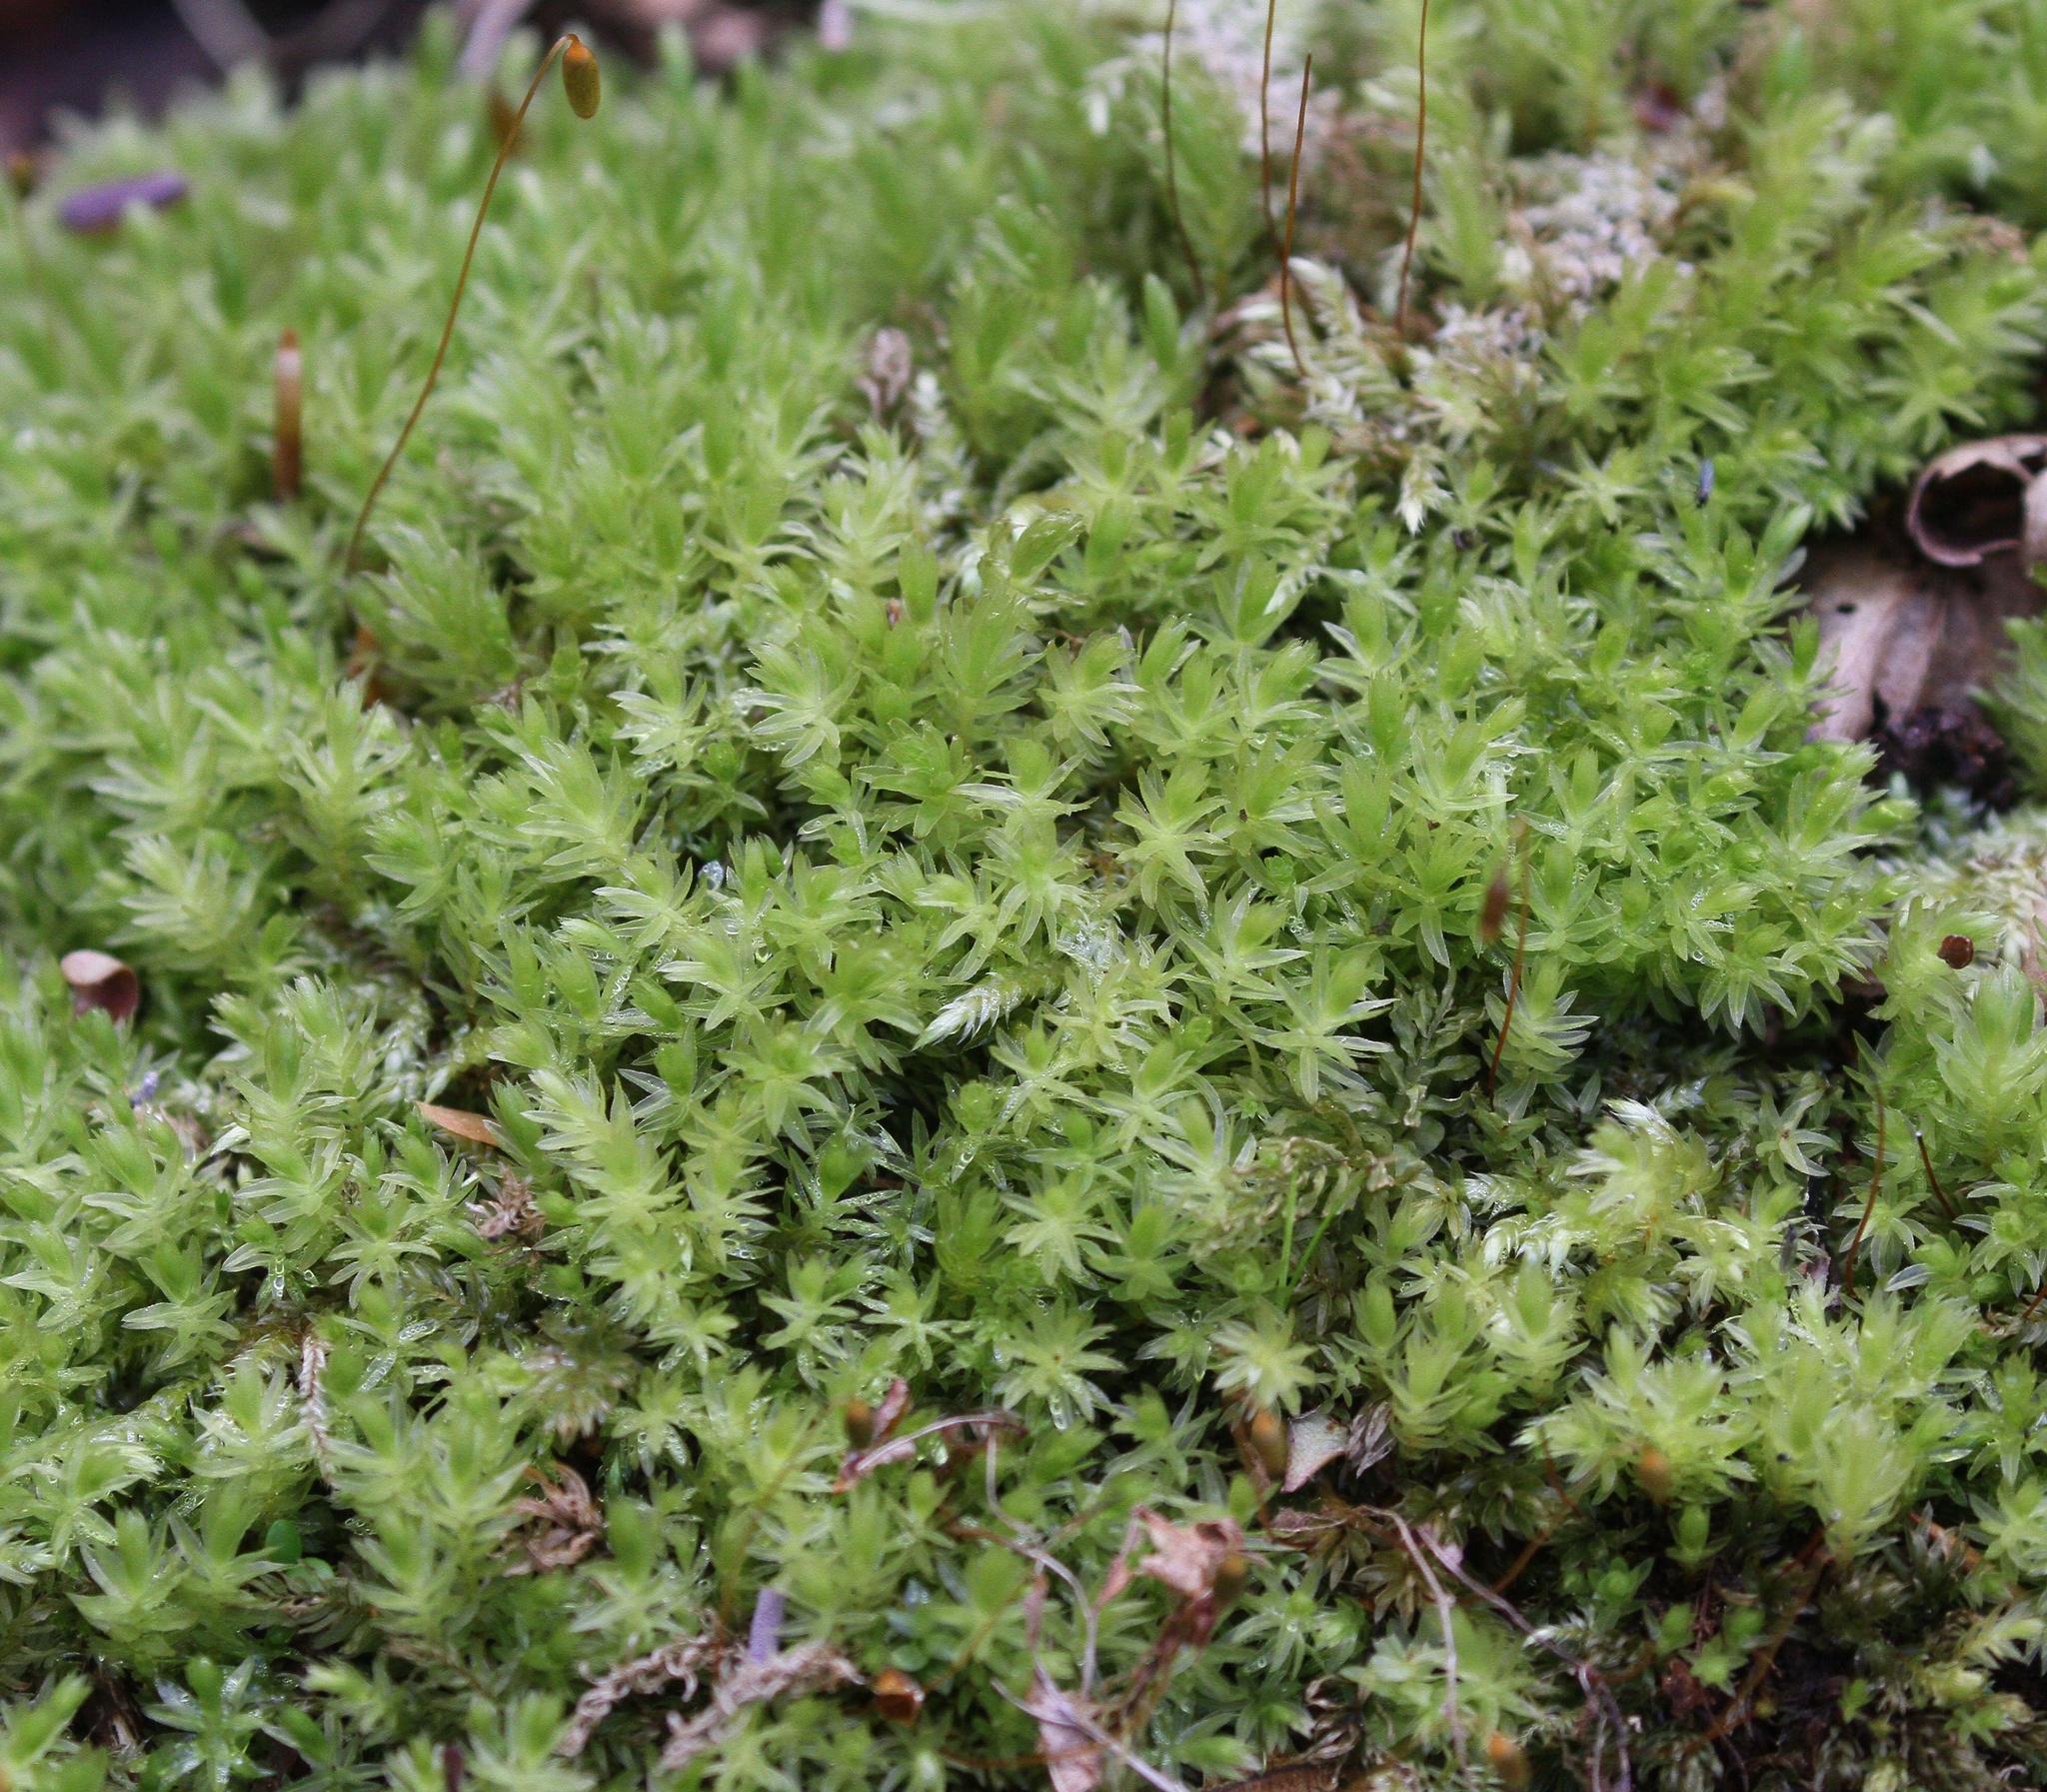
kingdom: Plantae
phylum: Bryophyta
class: Bryopsida
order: Bryales
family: Mniaceae
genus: Mnium
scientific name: Mnium hornum
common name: Swan's-neck leafy moss
